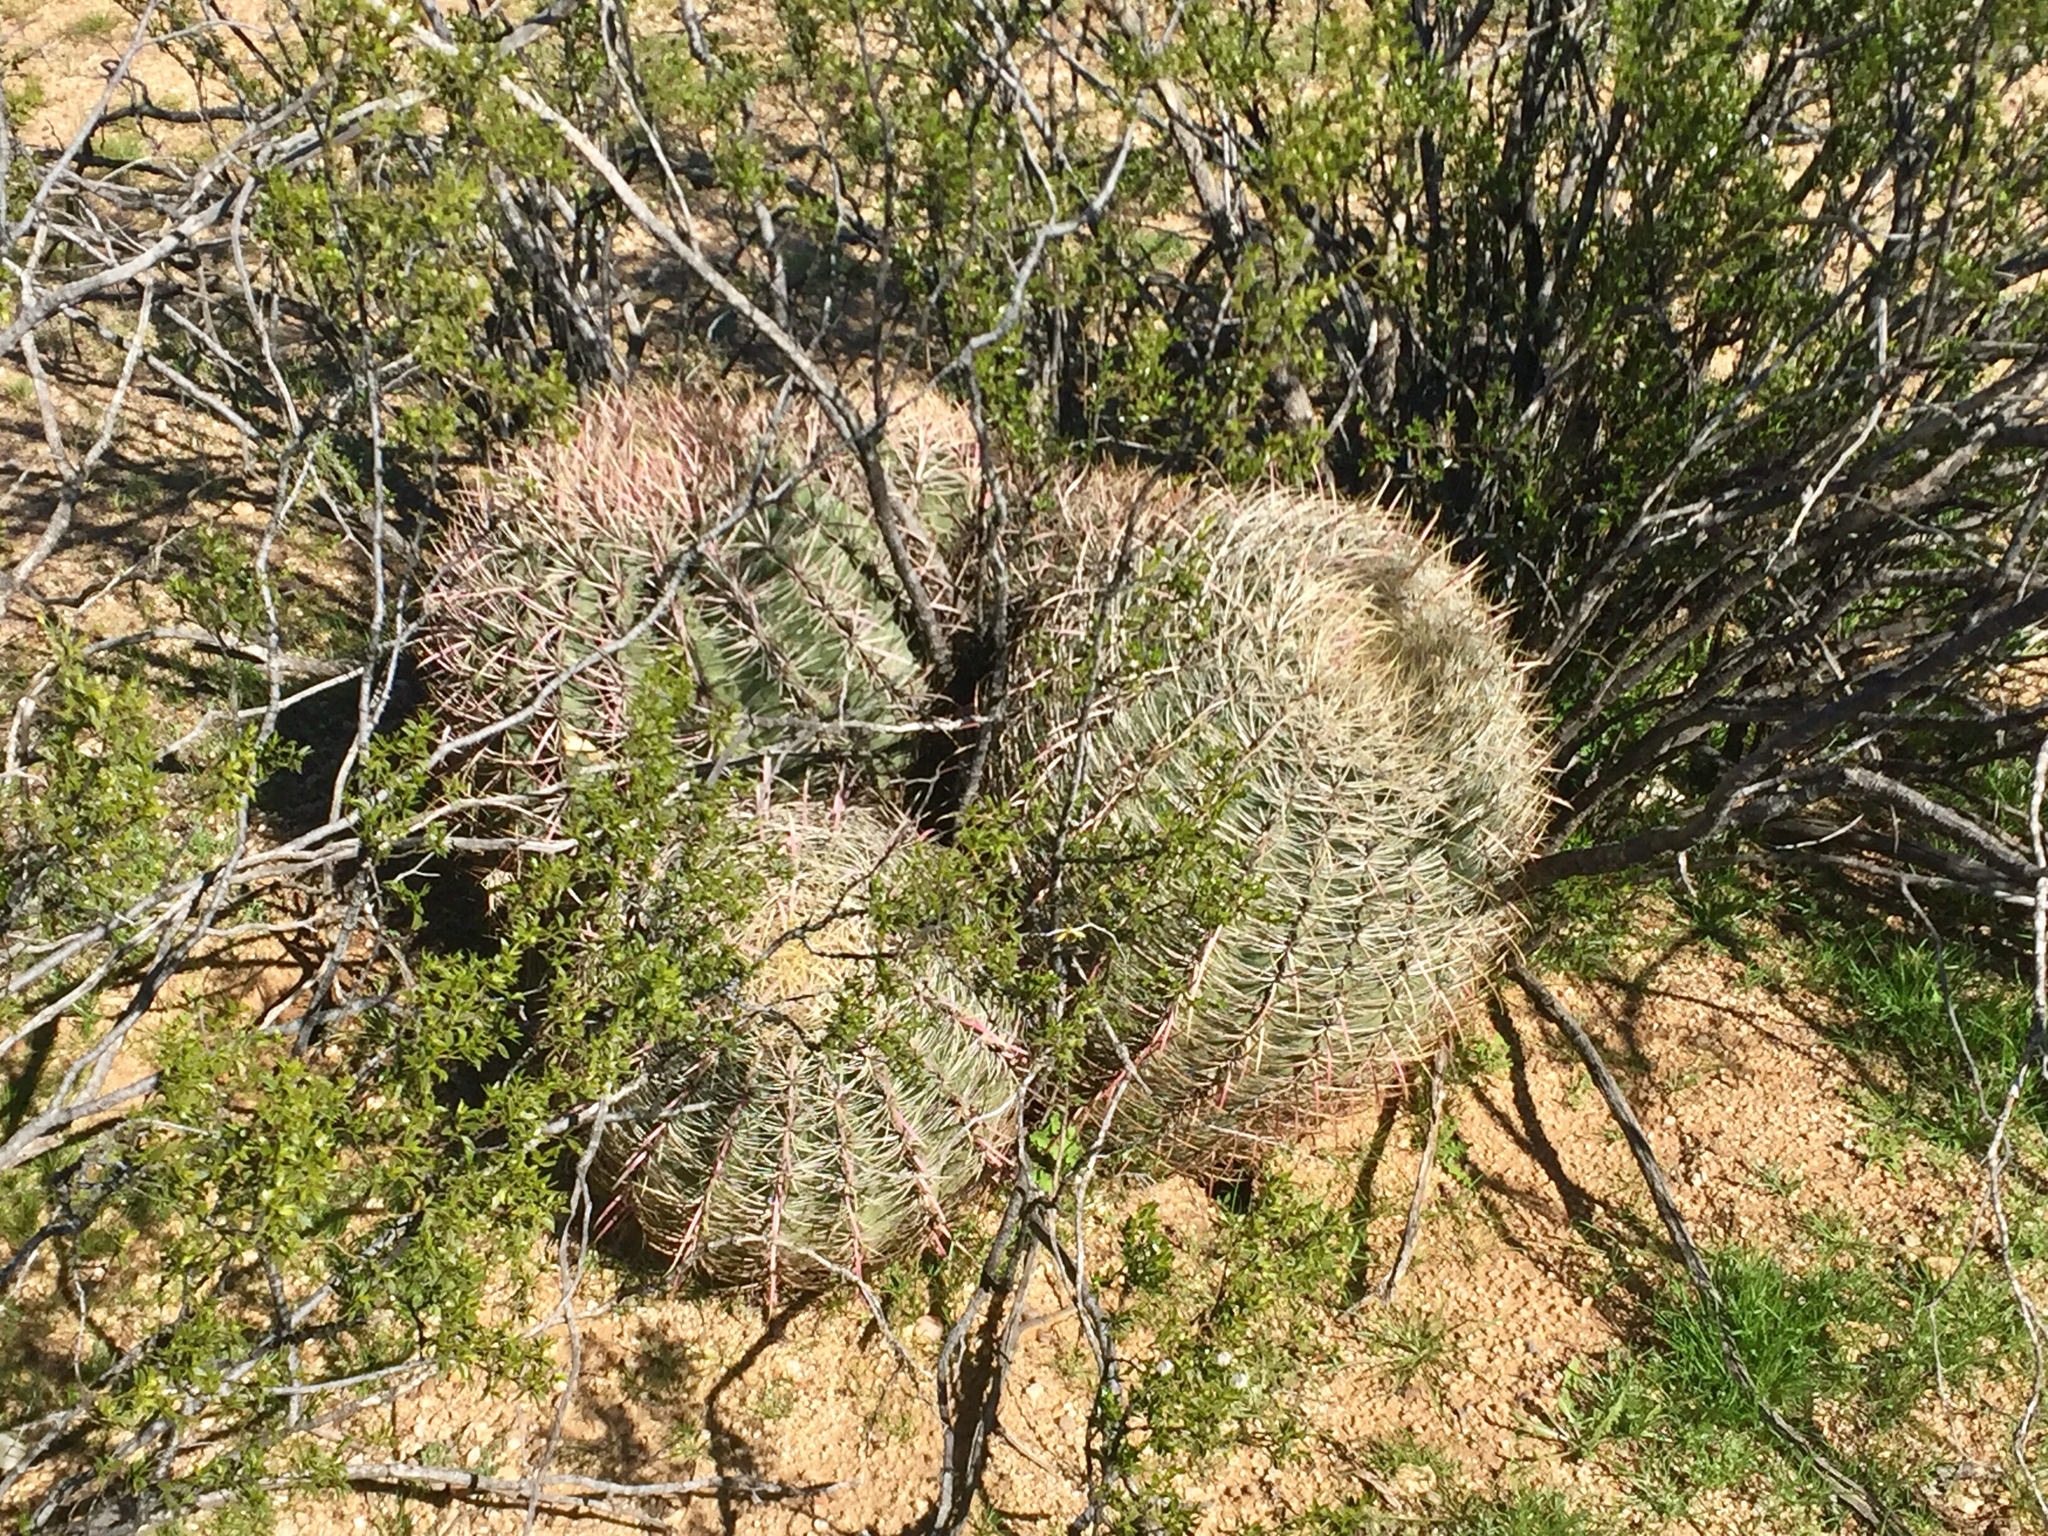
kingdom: Plantae
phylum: Tracheophyta
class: Magnoliopsida
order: Caryophyllales
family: Cactaceae
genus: Ferocactus
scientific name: Ferocactus cylindraceus
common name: California barrel cactus
